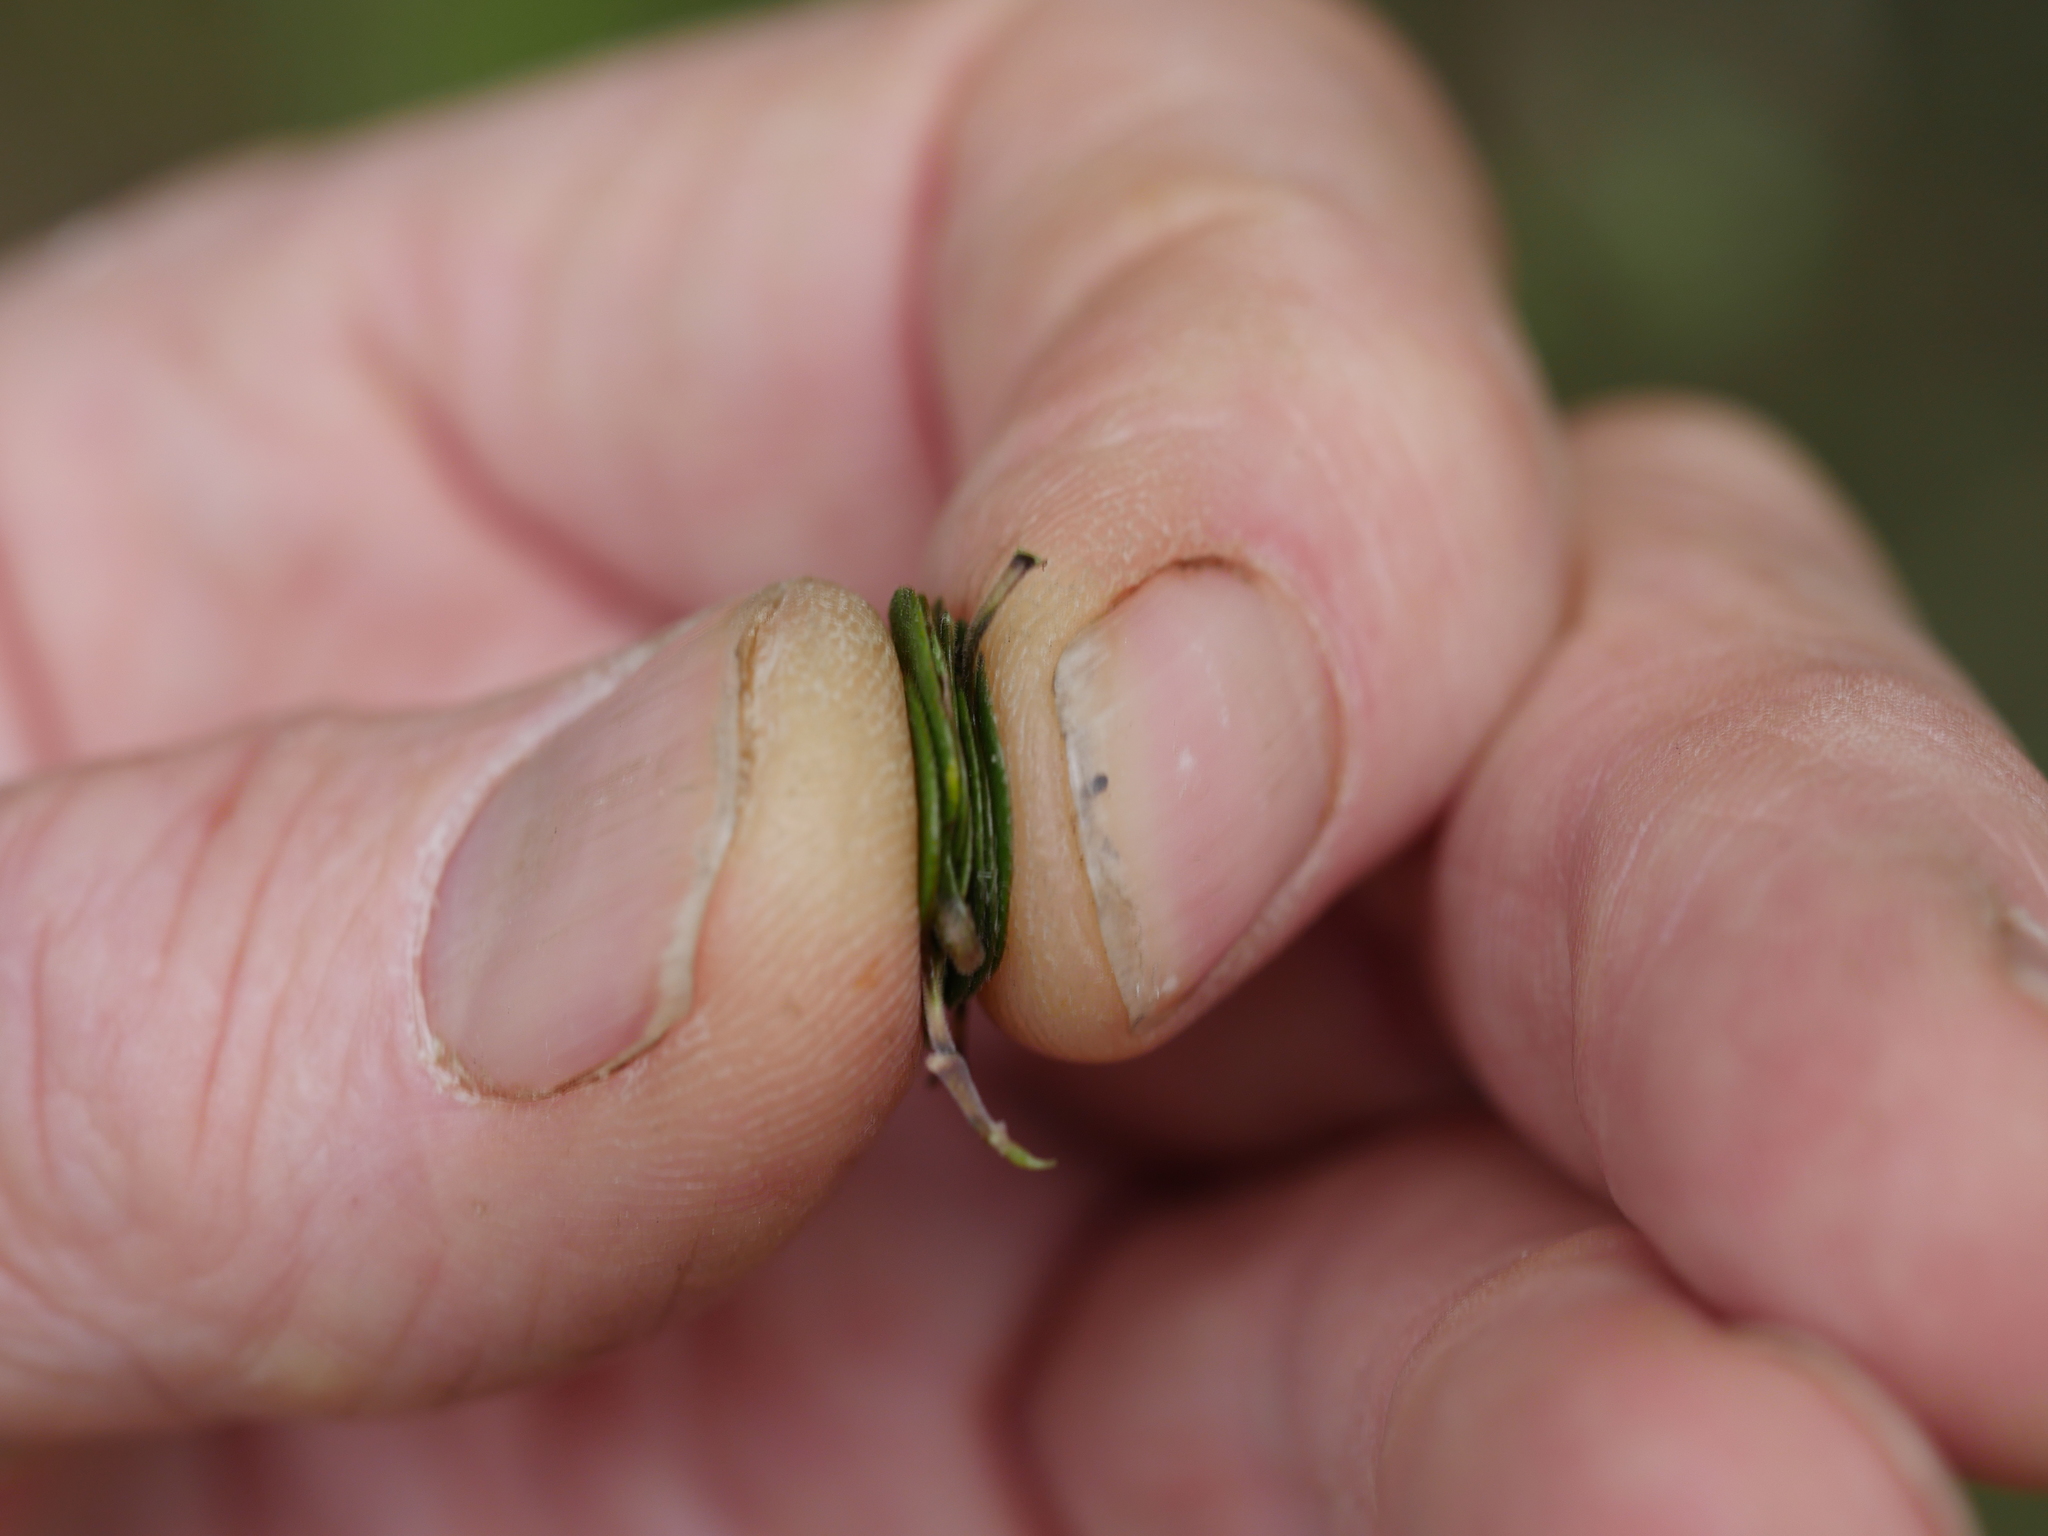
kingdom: Plantae
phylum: Tracheophyta
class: Magnoliopsida
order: Gentianales
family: Rubiaceae
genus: Coprosma
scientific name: Coprosma crassifolia
